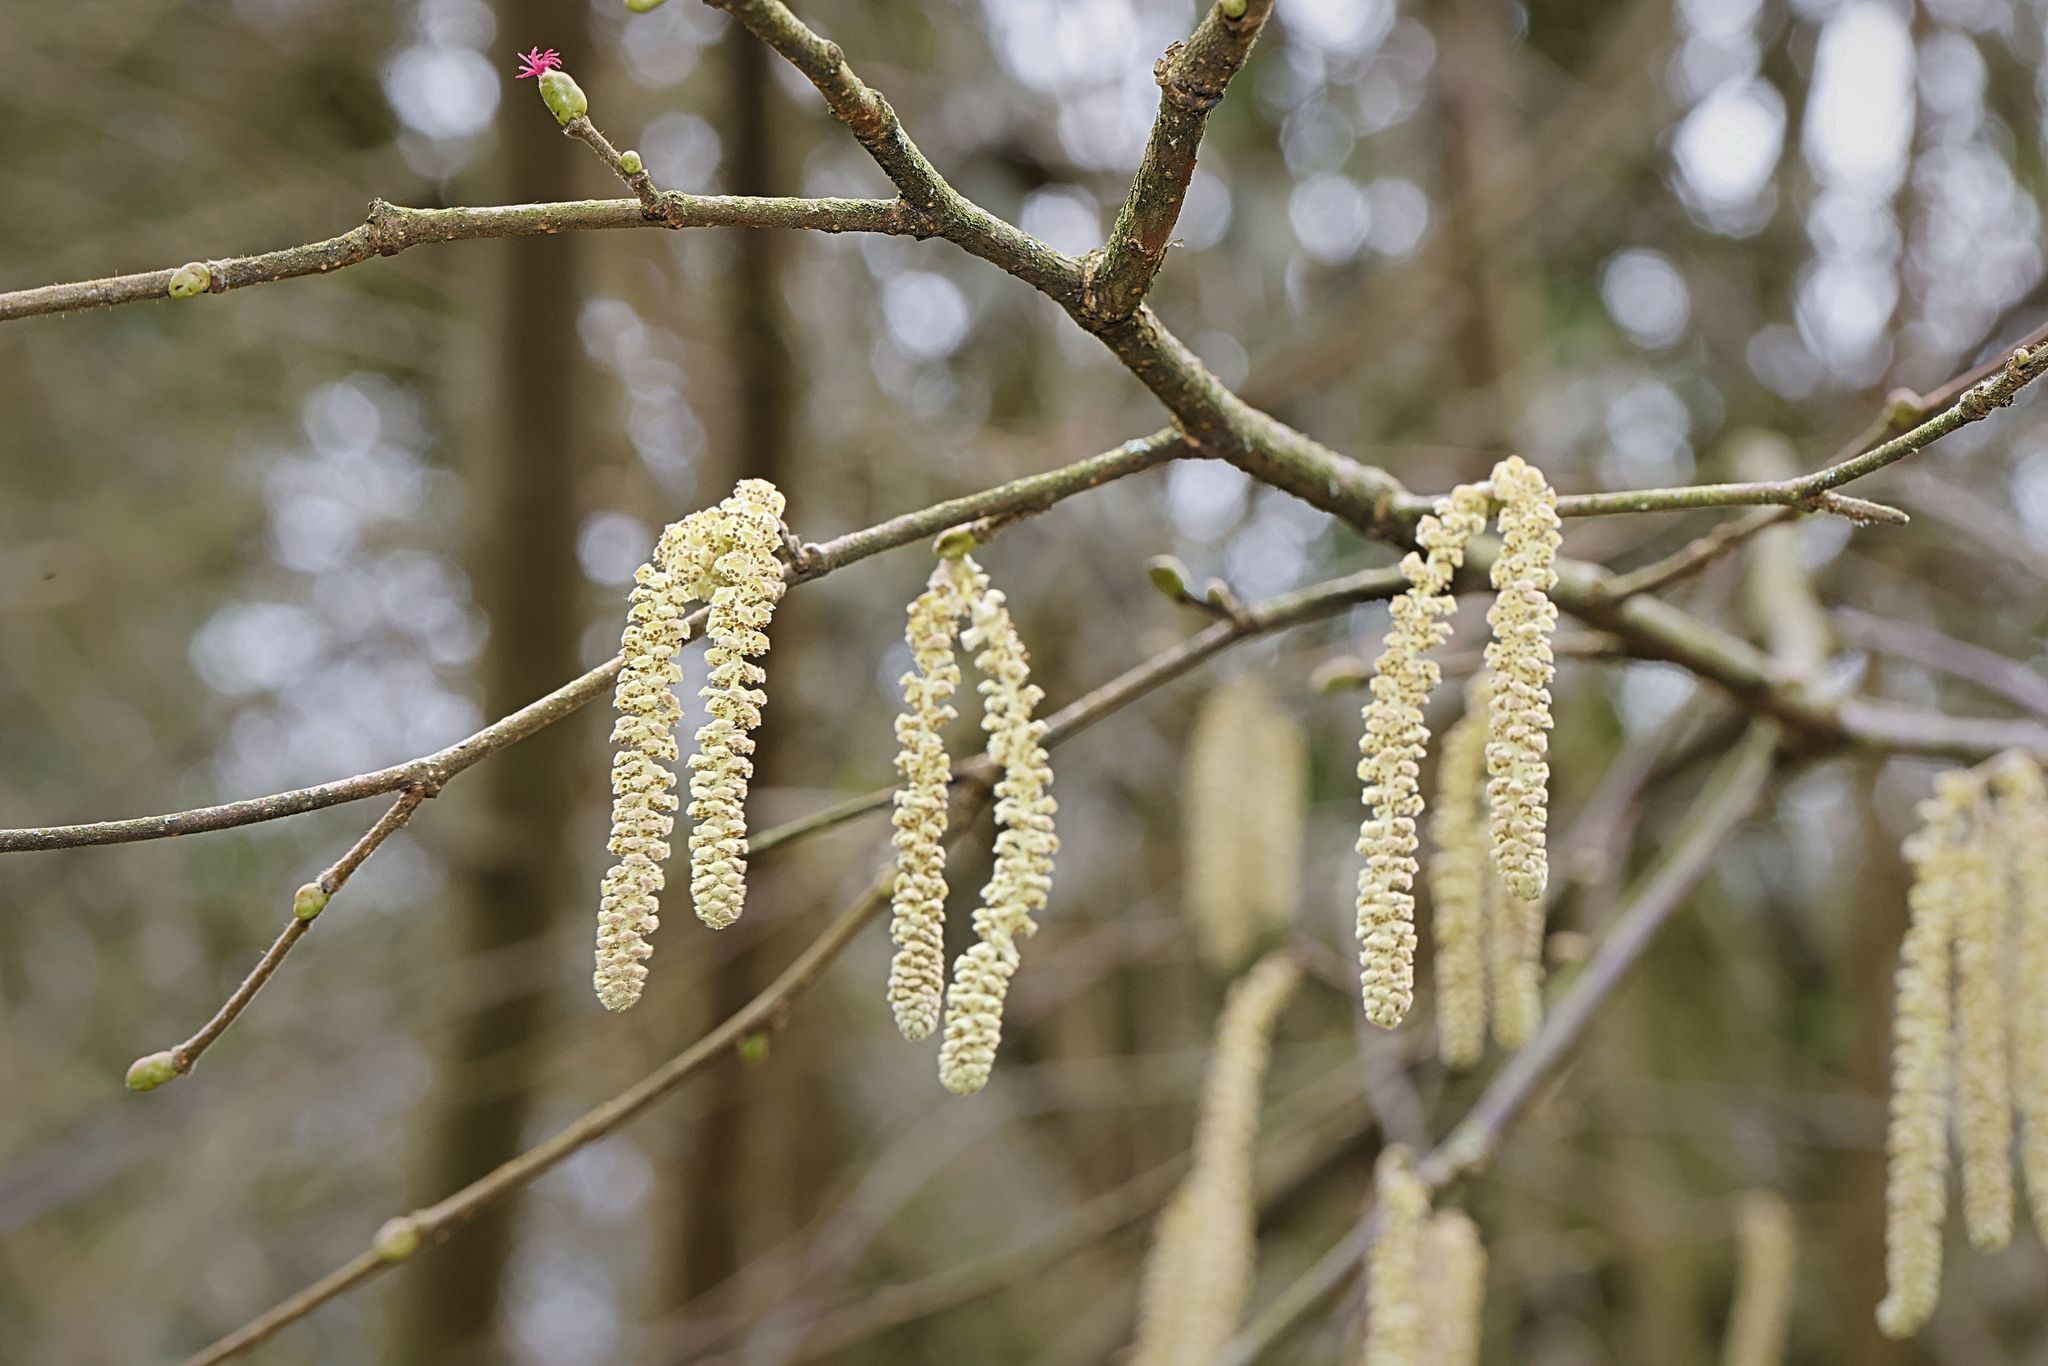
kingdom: Plantae
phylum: Tracheophyta
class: Magnoliopsida
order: Fagales
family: Betulaceae
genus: Corylus
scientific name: Corylus avellana
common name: European hazel
